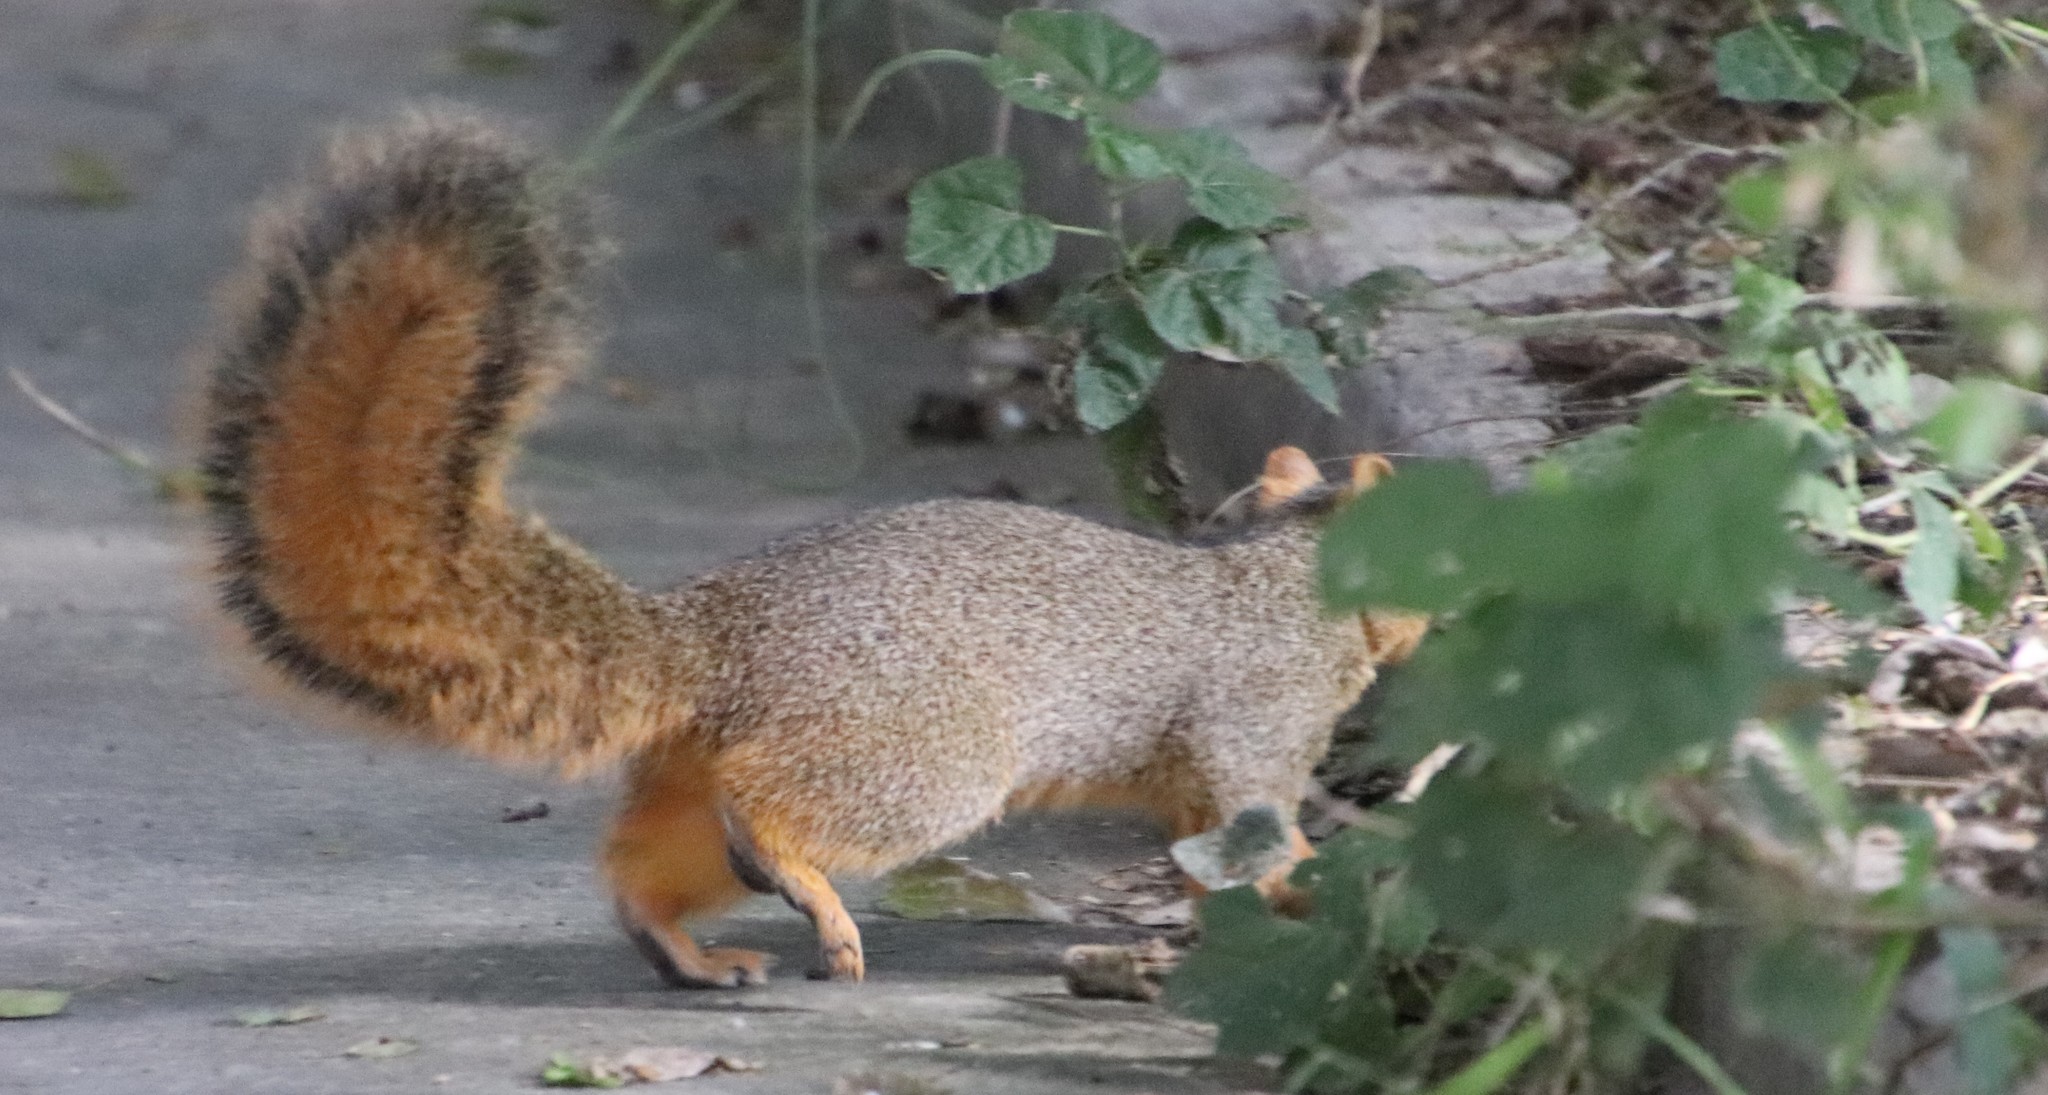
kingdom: Animalia
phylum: Chordata
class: Mammalia
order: Rodentia
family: Sciuridae
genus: Sciurus
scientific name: Sciurus niger
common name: Fox squirrel
